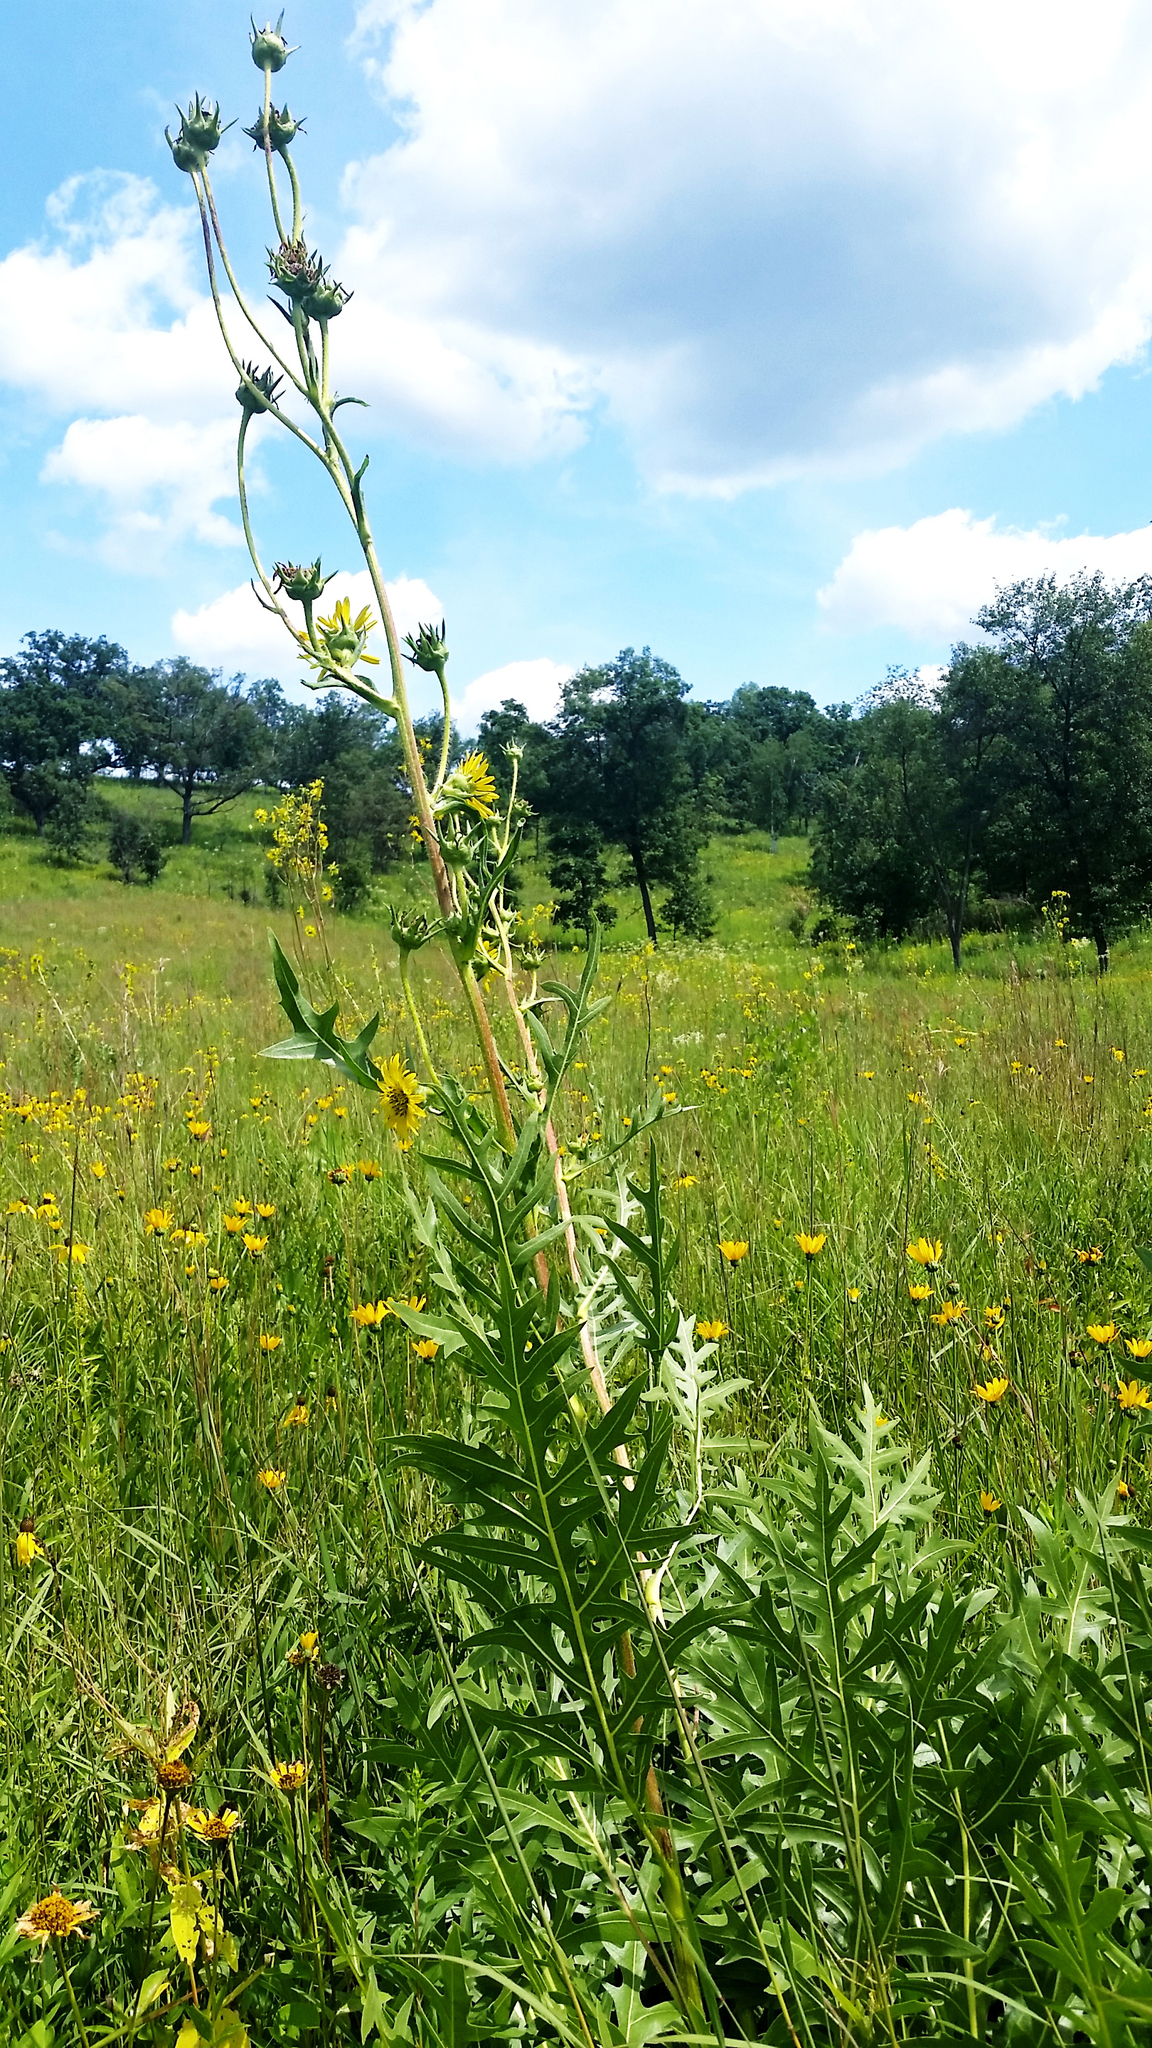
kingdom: Plantae
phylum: Tracheophyta
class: Magnoliopsida
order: Asterales
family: Asteraceae
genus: Silphium
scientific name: Silphium laciniatum
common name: Polarplant
